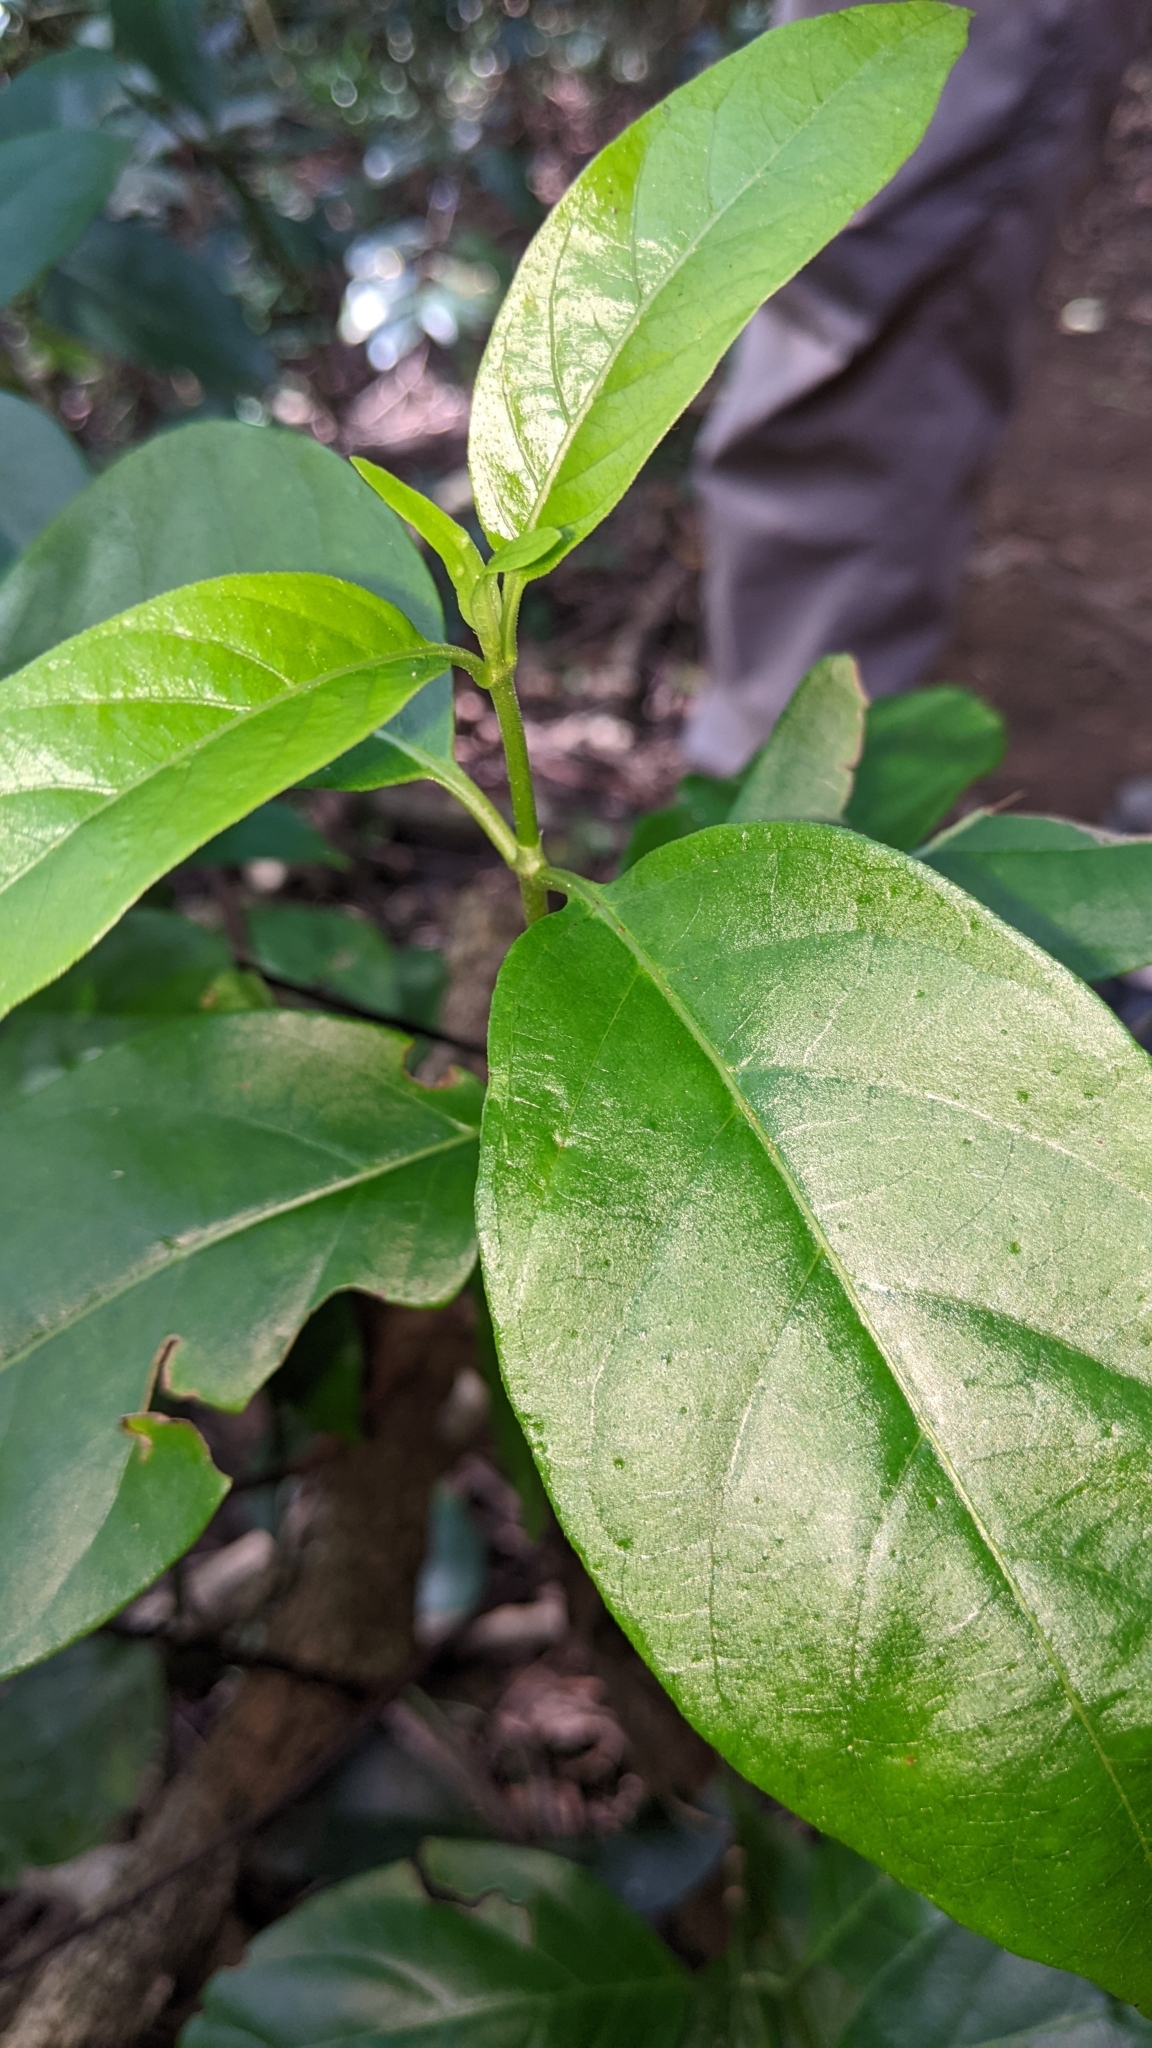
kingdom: Plantae
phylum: Tracheophyta
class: Magnoliopsida
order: Gentianales
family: Rubiaceae
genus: Gynochthodes
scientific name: Gynochthodes umbellata
